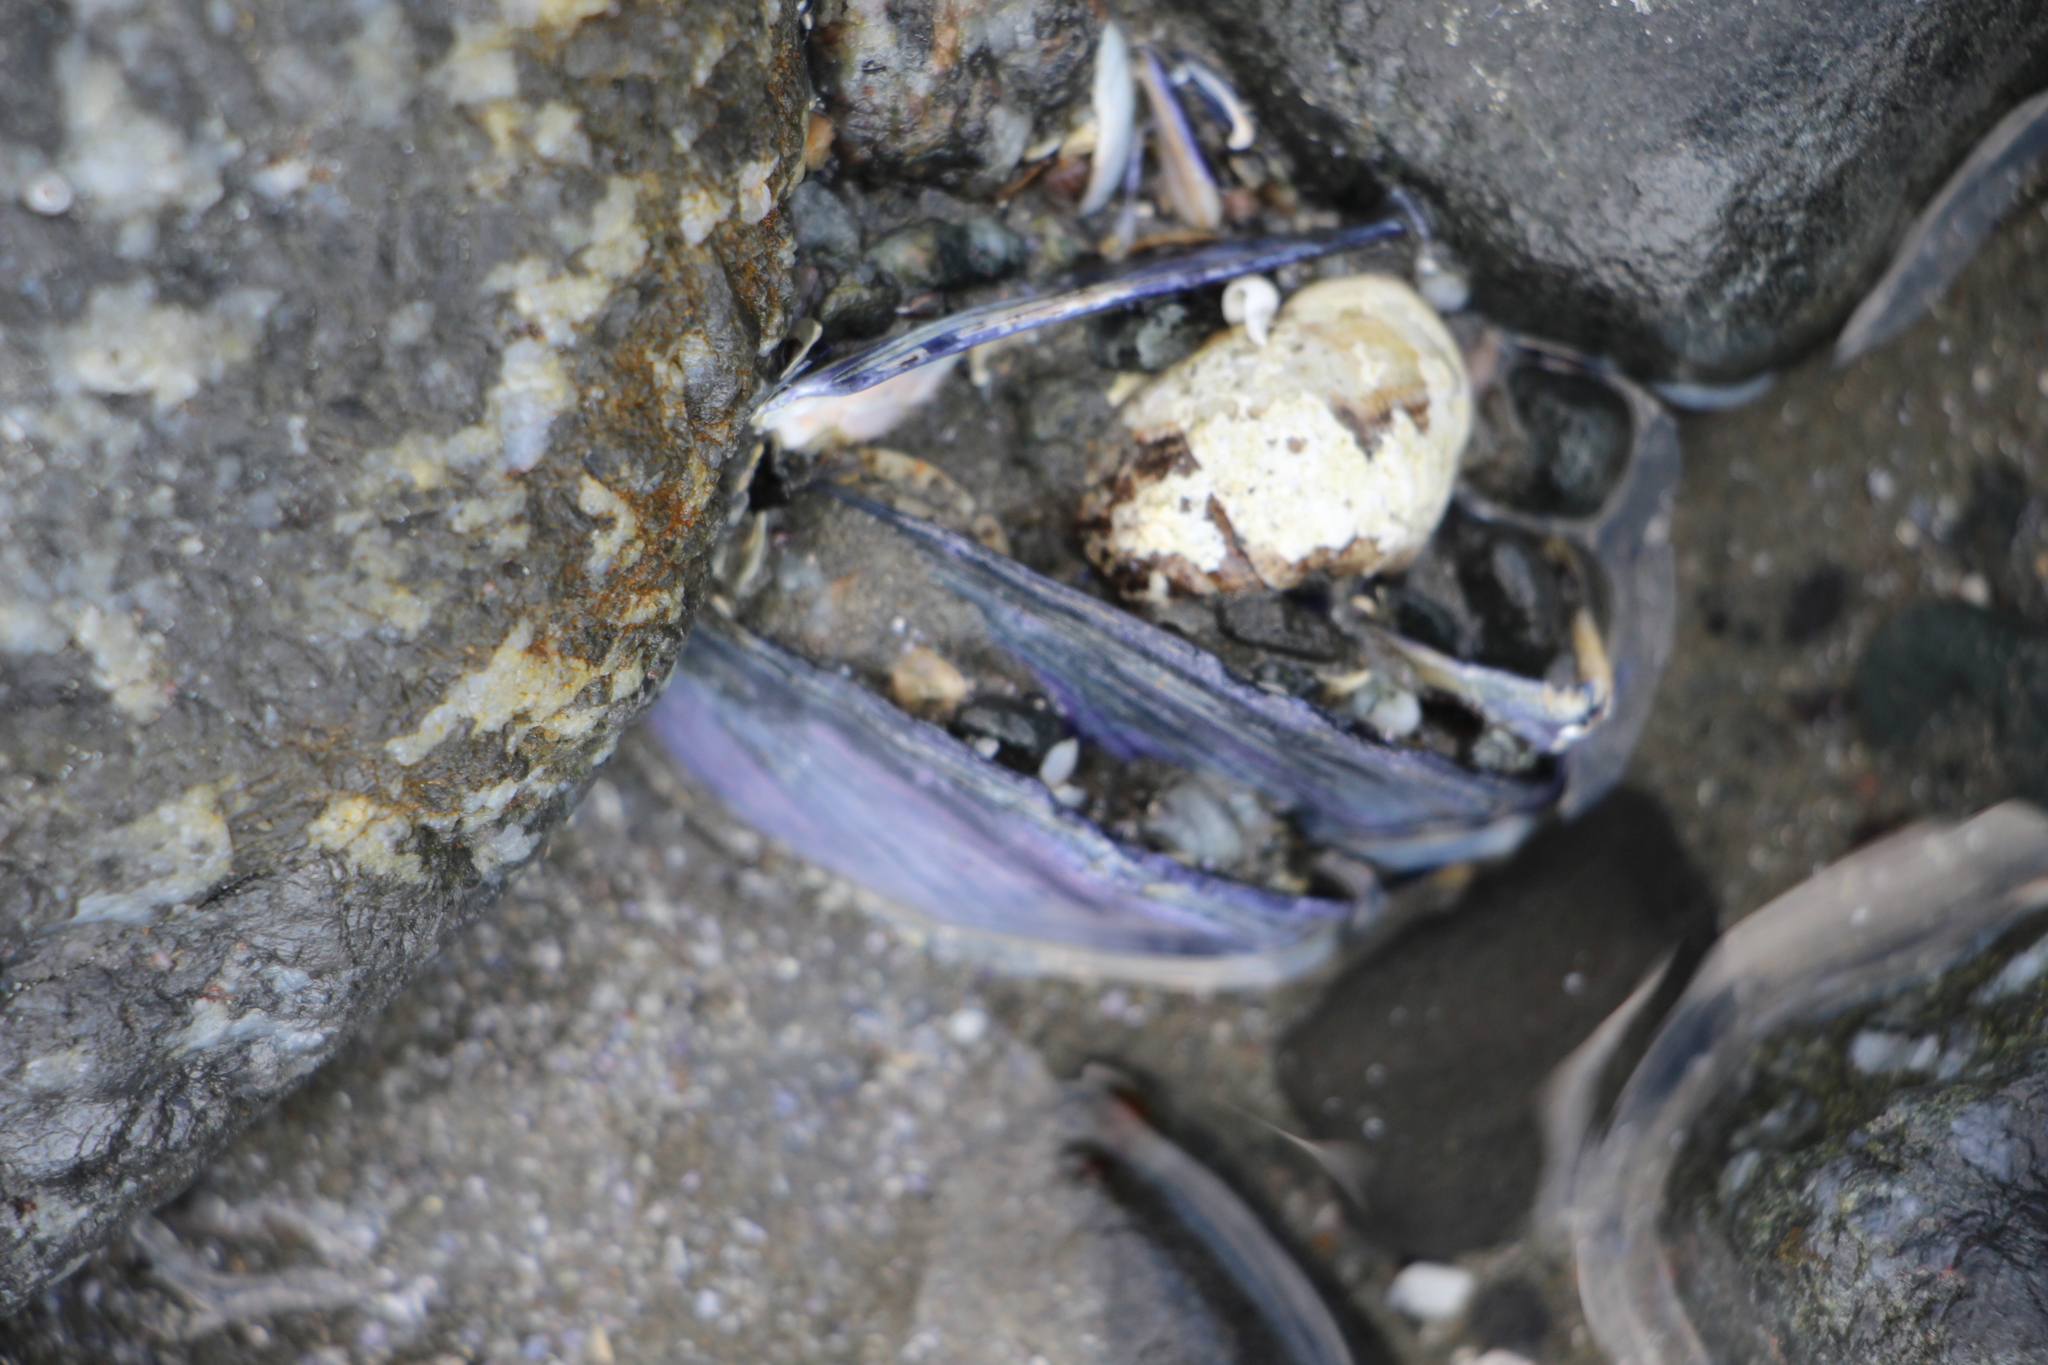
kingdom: Animalia
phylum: Mollusca
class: Bivalvia
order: Mytilida
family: Mytilidae
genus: Mytilus
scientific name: Mytilus edulis
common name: Blue mussel
